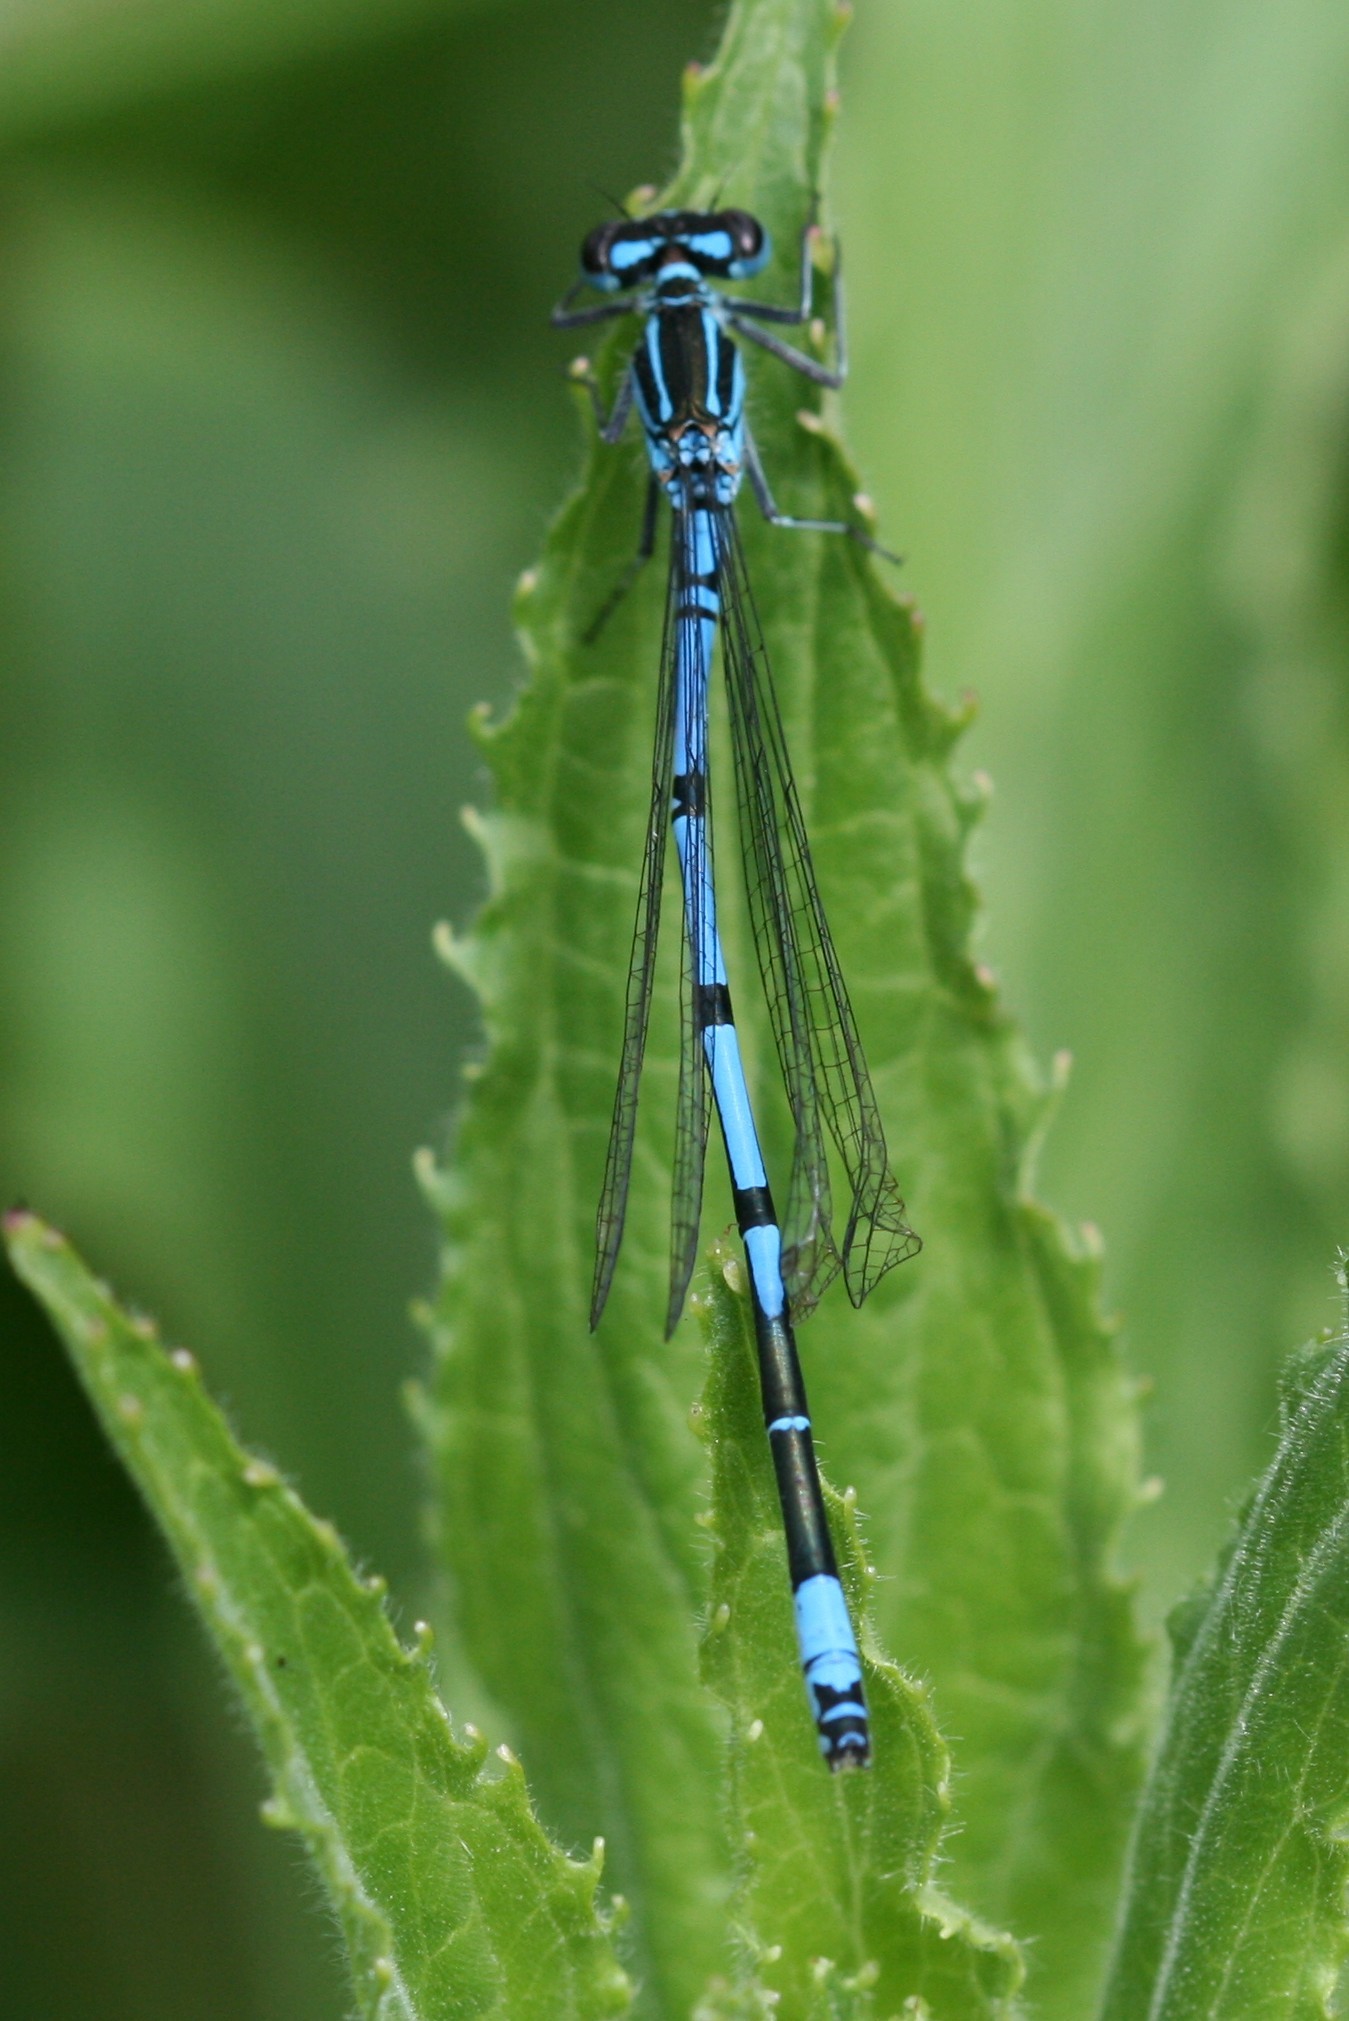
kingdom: Animalia
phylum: Arthropoda
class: Insecta
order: Odonata
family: Coenagrionidae
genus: Coenagrion
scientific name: Coenagrion puella
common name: Azure damselfly
